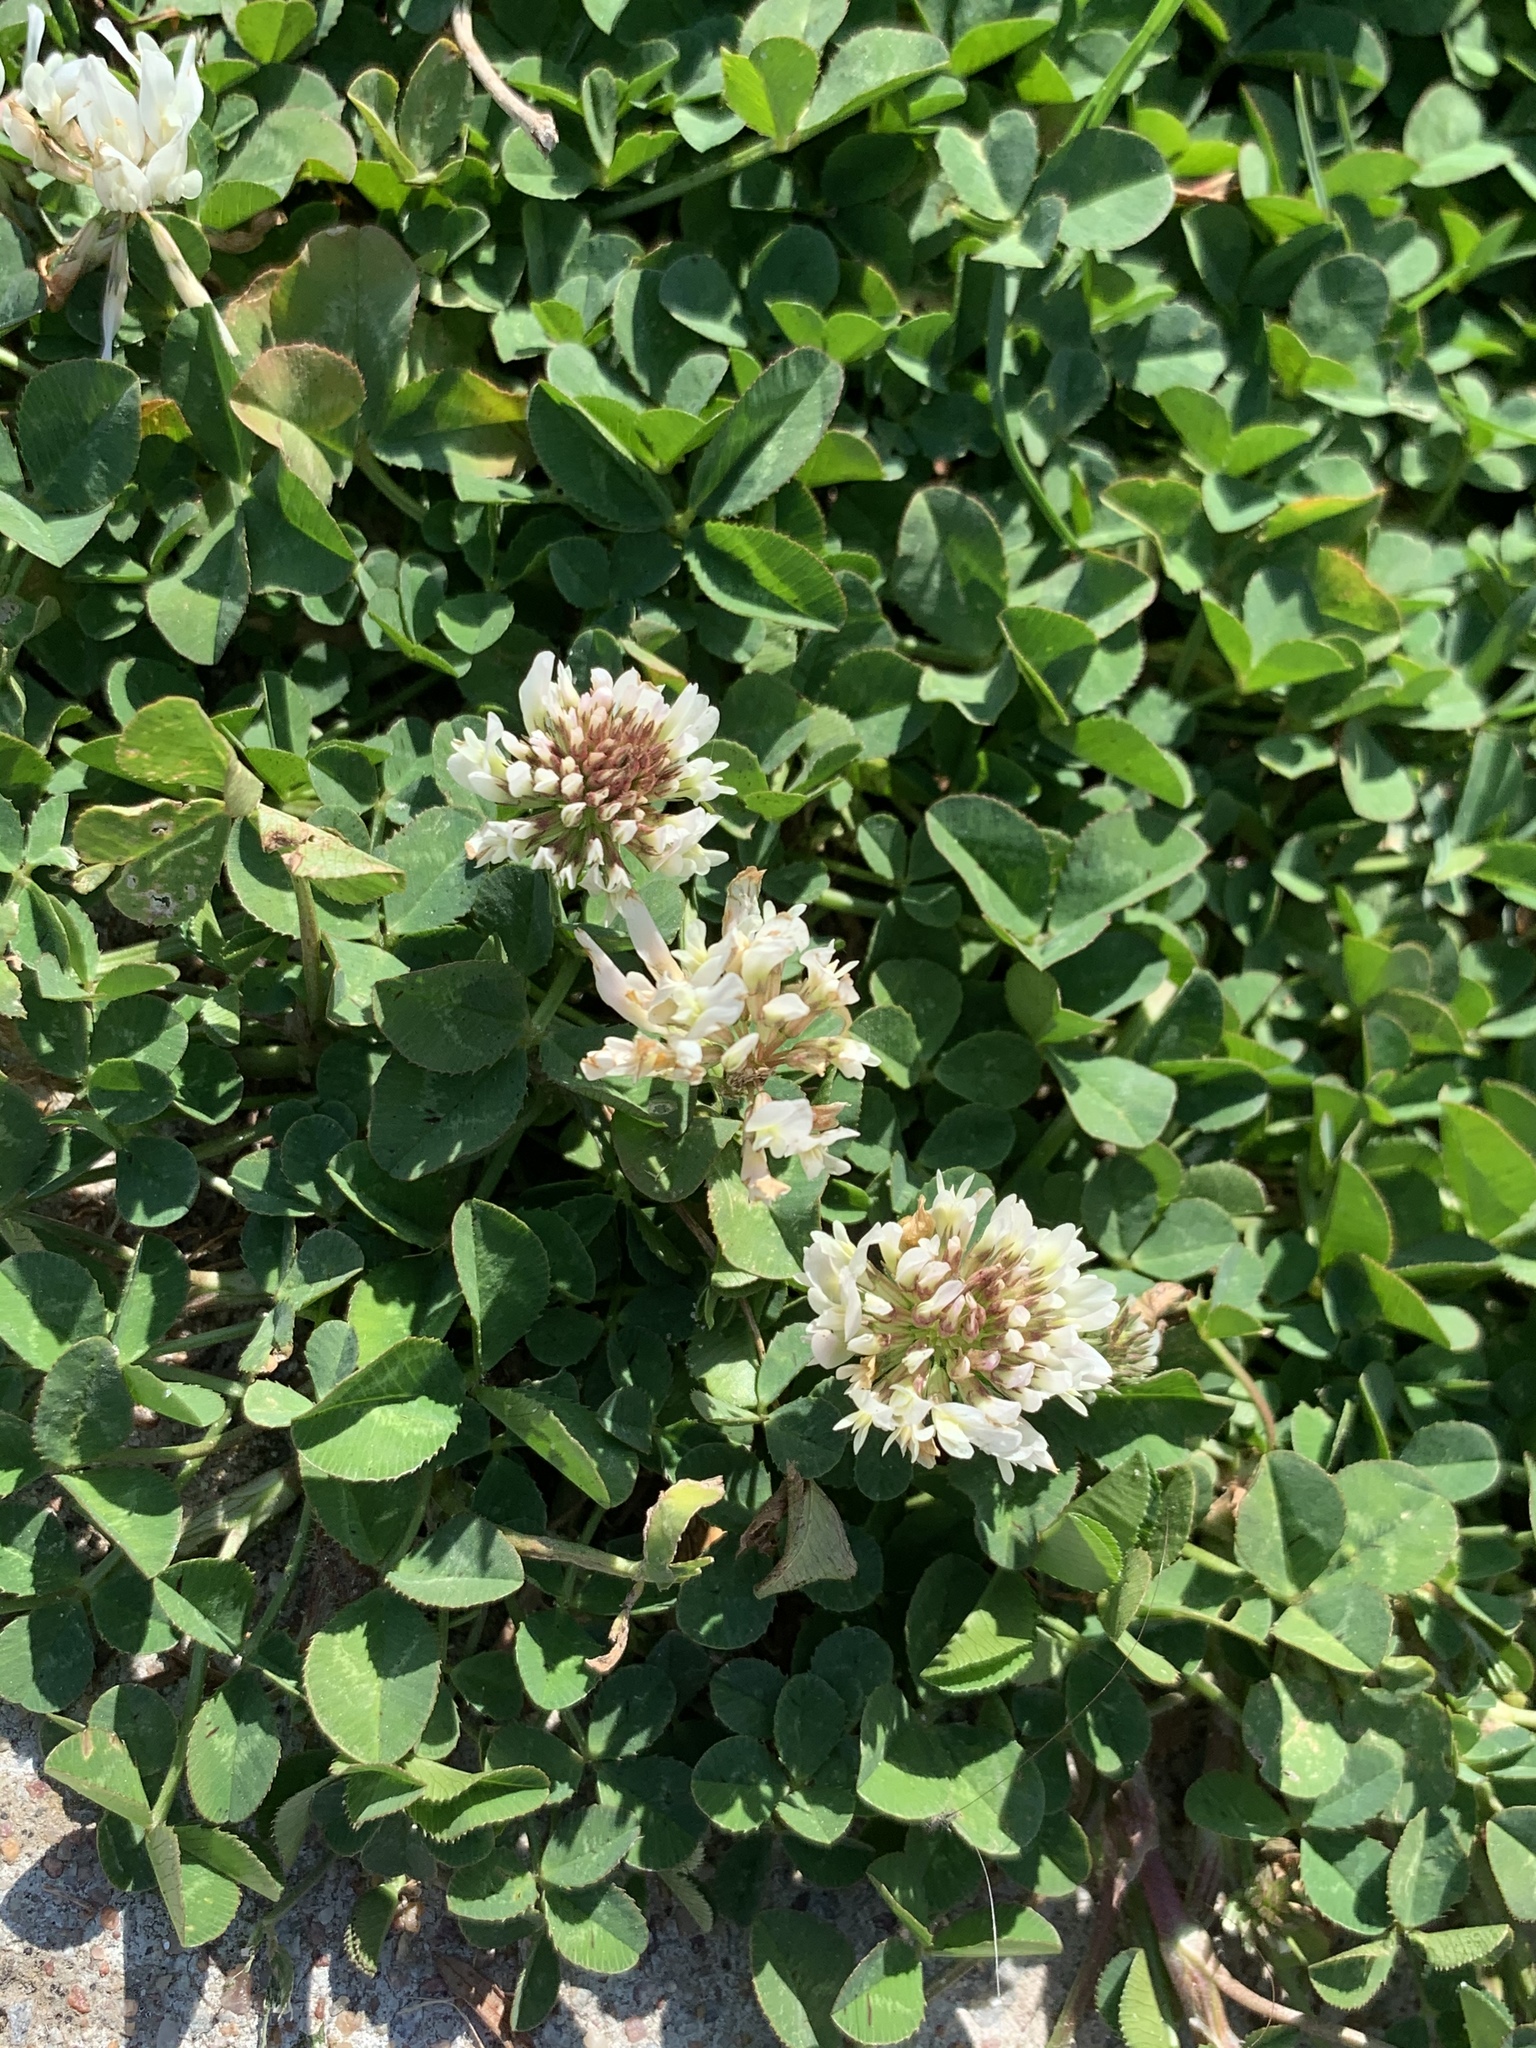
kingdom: Plantae
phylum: Tracheophyta
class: Magnoliopsida
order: Fabales
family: Fabaceae
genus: Trifolium
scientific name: Trifolium repens
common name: White clover
